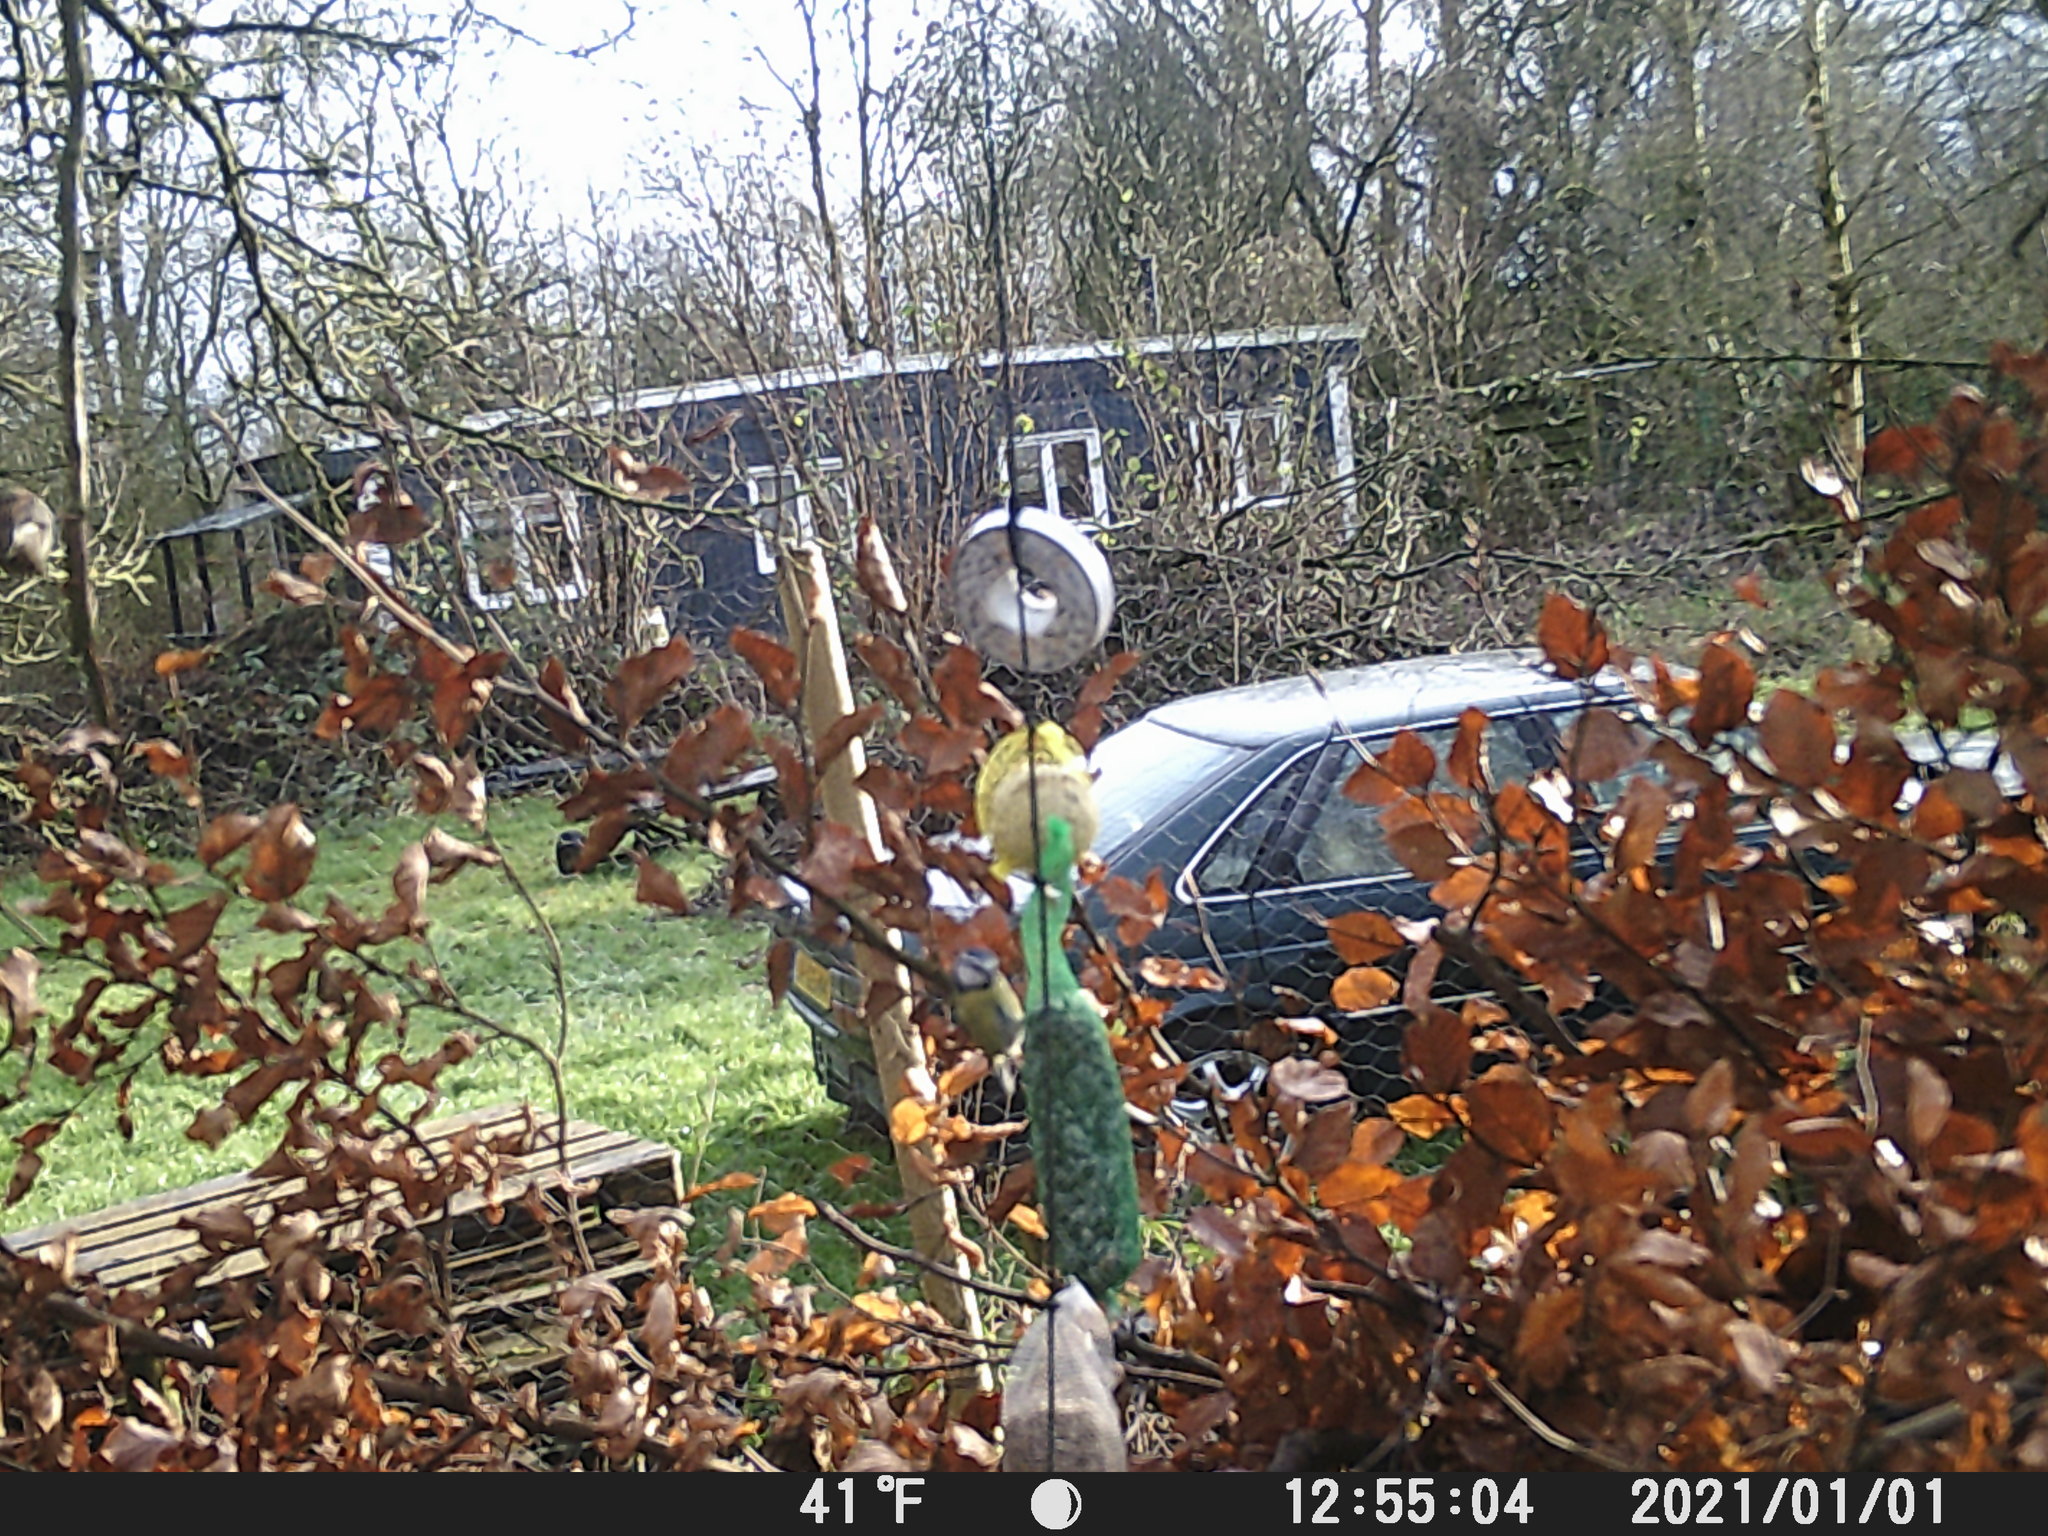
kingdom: Animalia
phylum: Chordata
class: Aves
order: Passeriformes
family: Paridae
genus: Cyanistes
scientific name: Cyanistes caeruleus
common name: Eurasian blue tit
